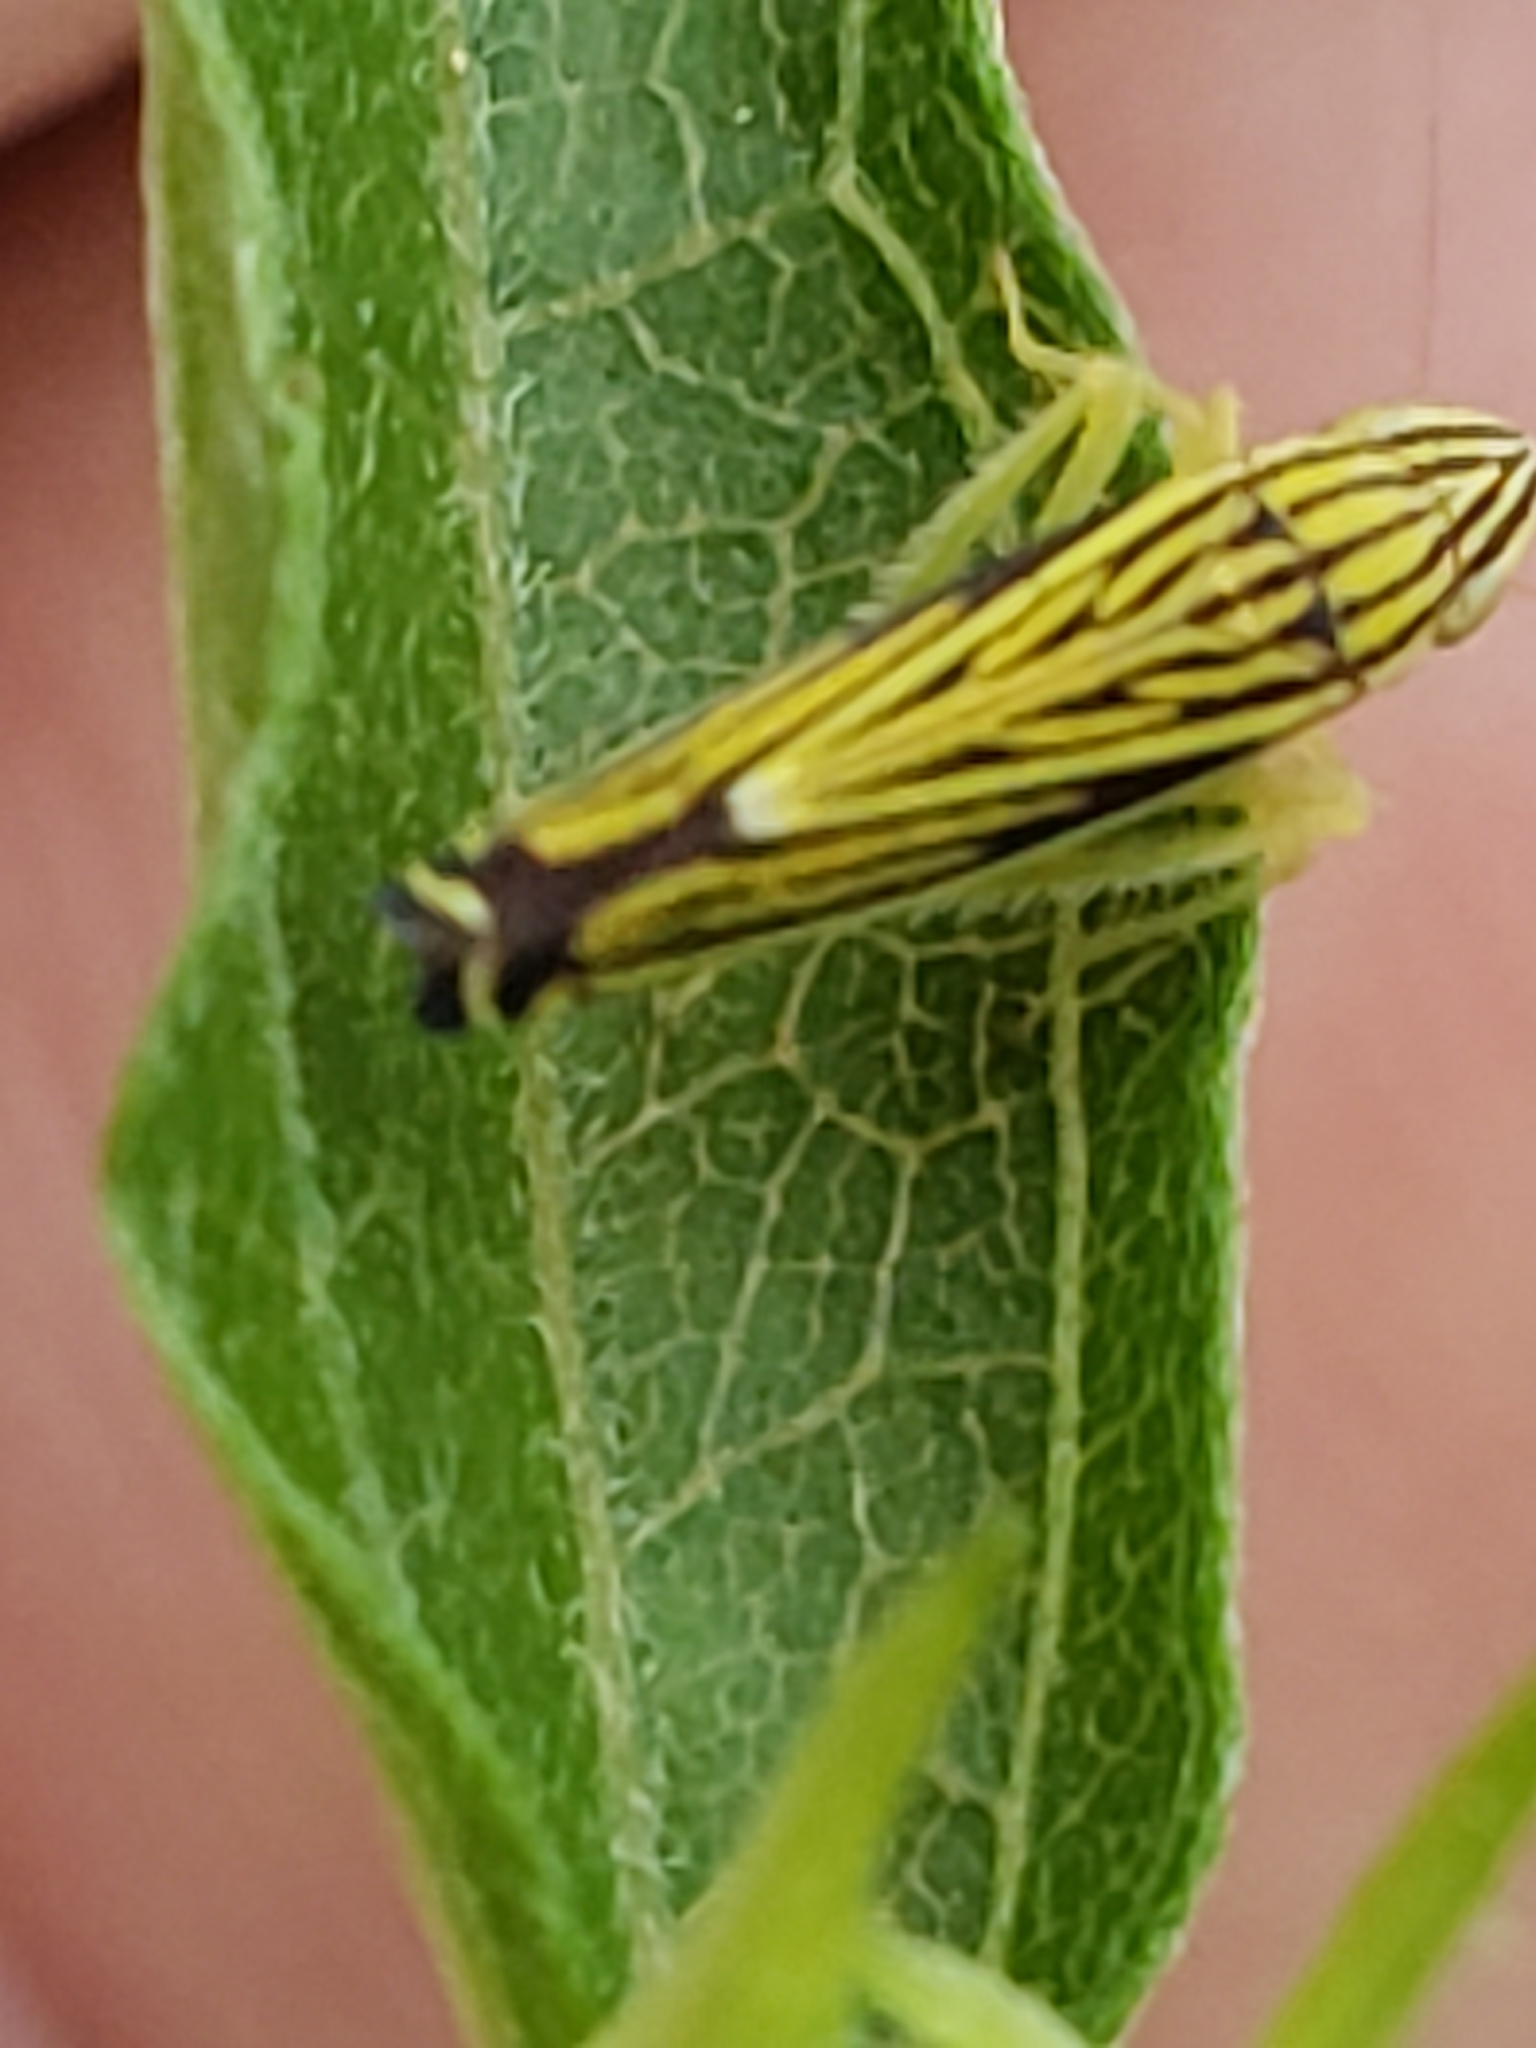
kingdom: Animalia
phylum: Arthropoda
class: Insecta
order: Hemiptera
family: Cicadellidae
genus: Sibovia
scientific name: Sibovia occatoria
